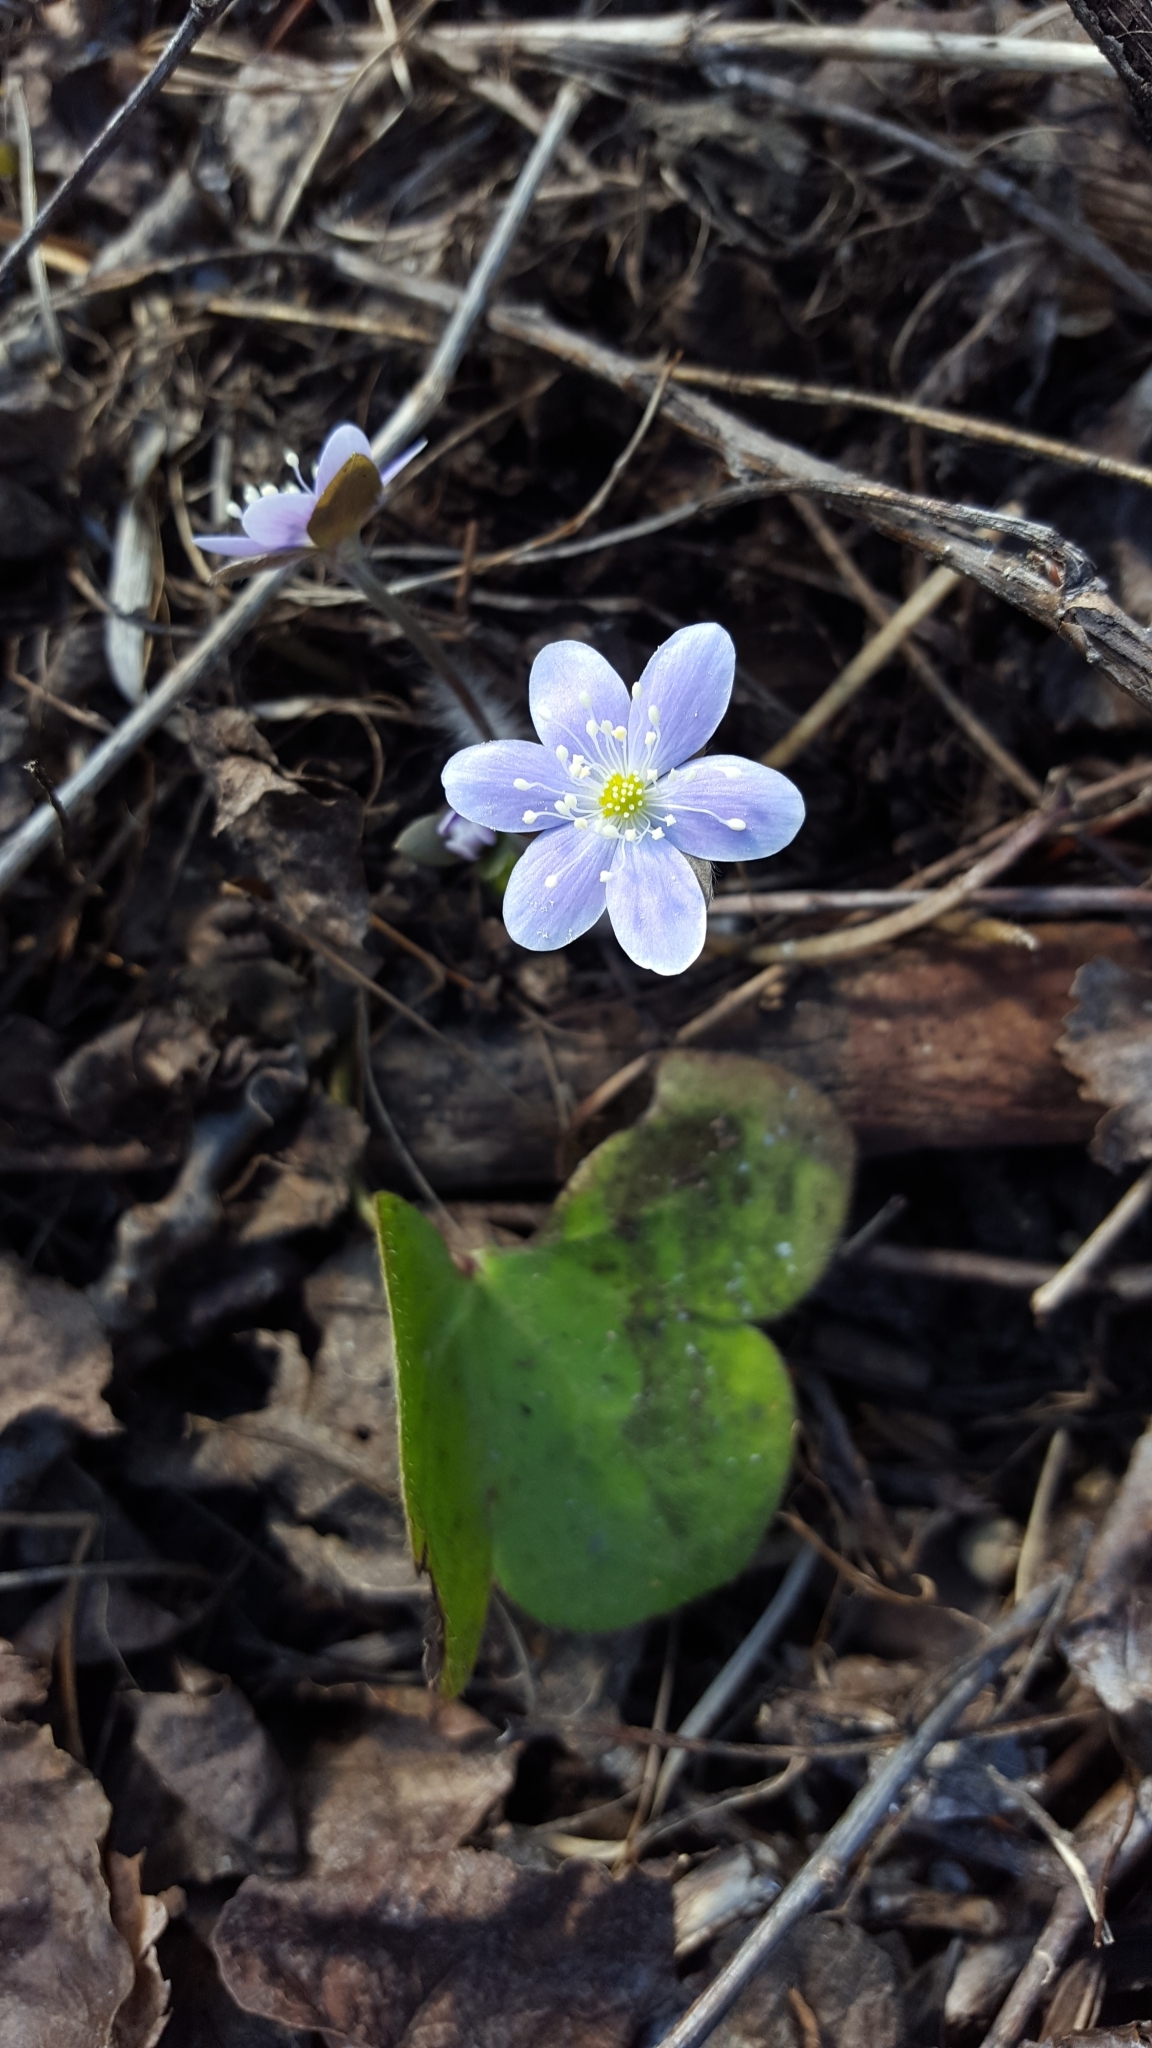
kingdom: Plantae
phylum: Tracheophyta
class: Magnoliopsida
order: Ranunculales
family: Ranunculaceae
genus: Hepatica
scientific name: Hepatica americana
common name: American hepatica
